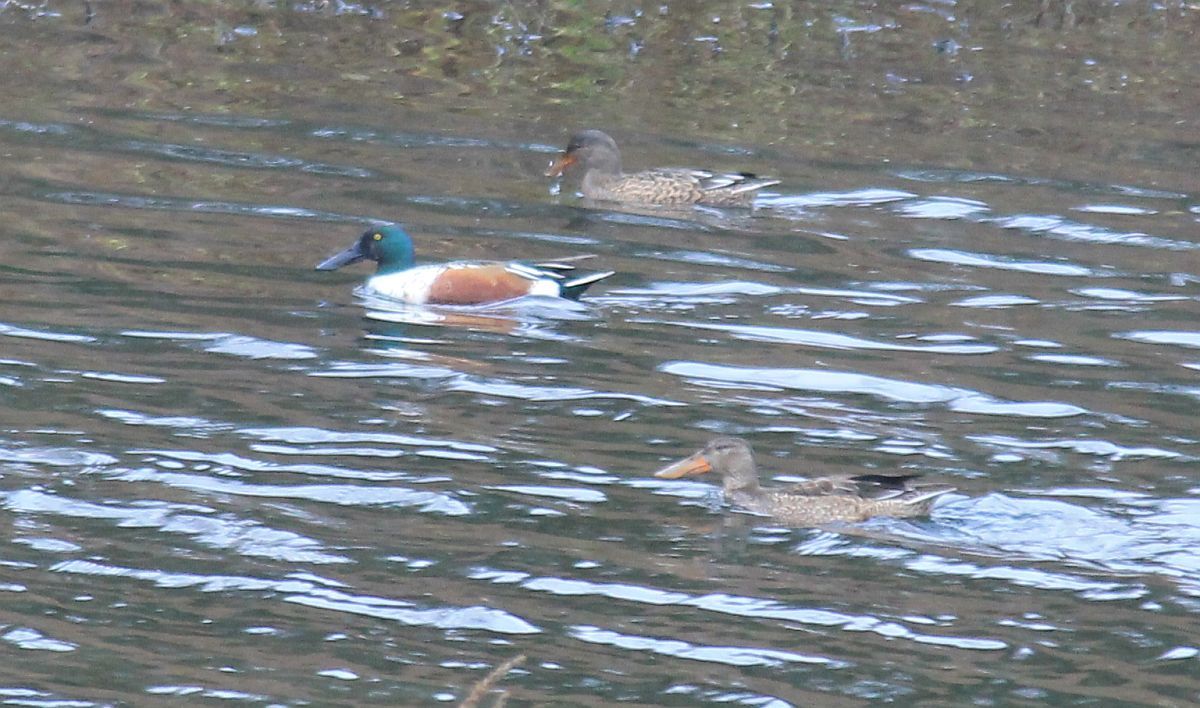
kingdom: Animalia
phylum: Chordata
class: Aves
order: Anseriformes
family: Anatidae
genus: Spatula
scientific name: Spatula clypeata
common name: Northern shoveler
